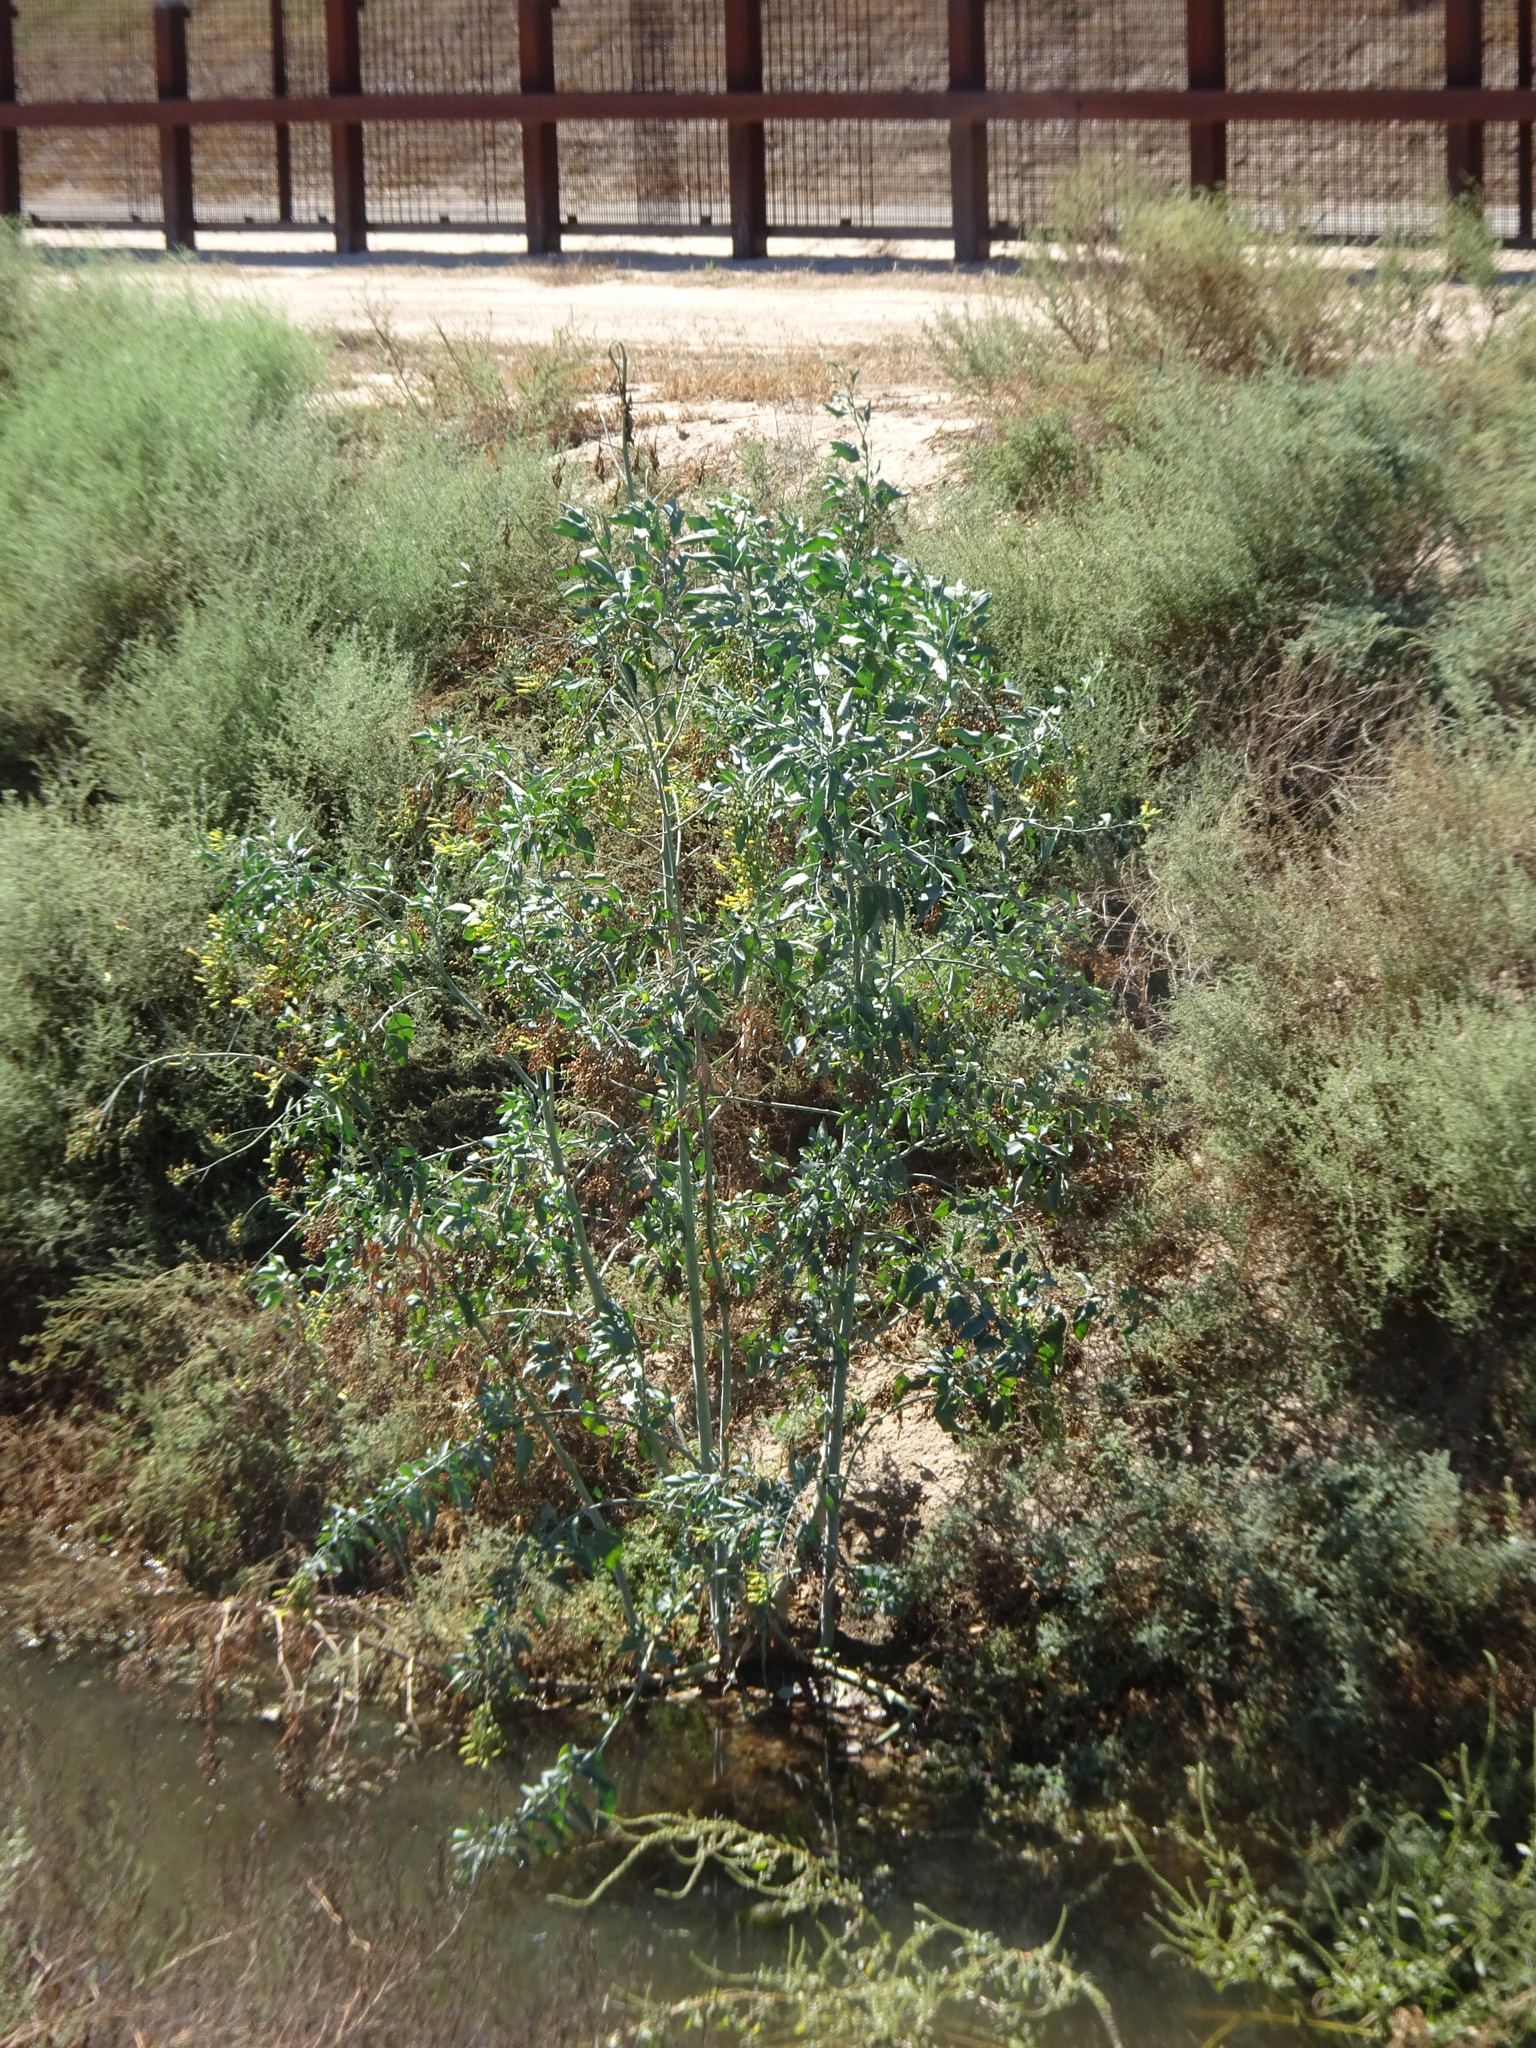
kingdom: Plantae
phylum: Tracheophyta
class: Magnoliopsida
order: Solanales
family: Solanaceae
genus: Nicotiana
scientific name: Nicotiana glauca
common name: Tree tobacco
